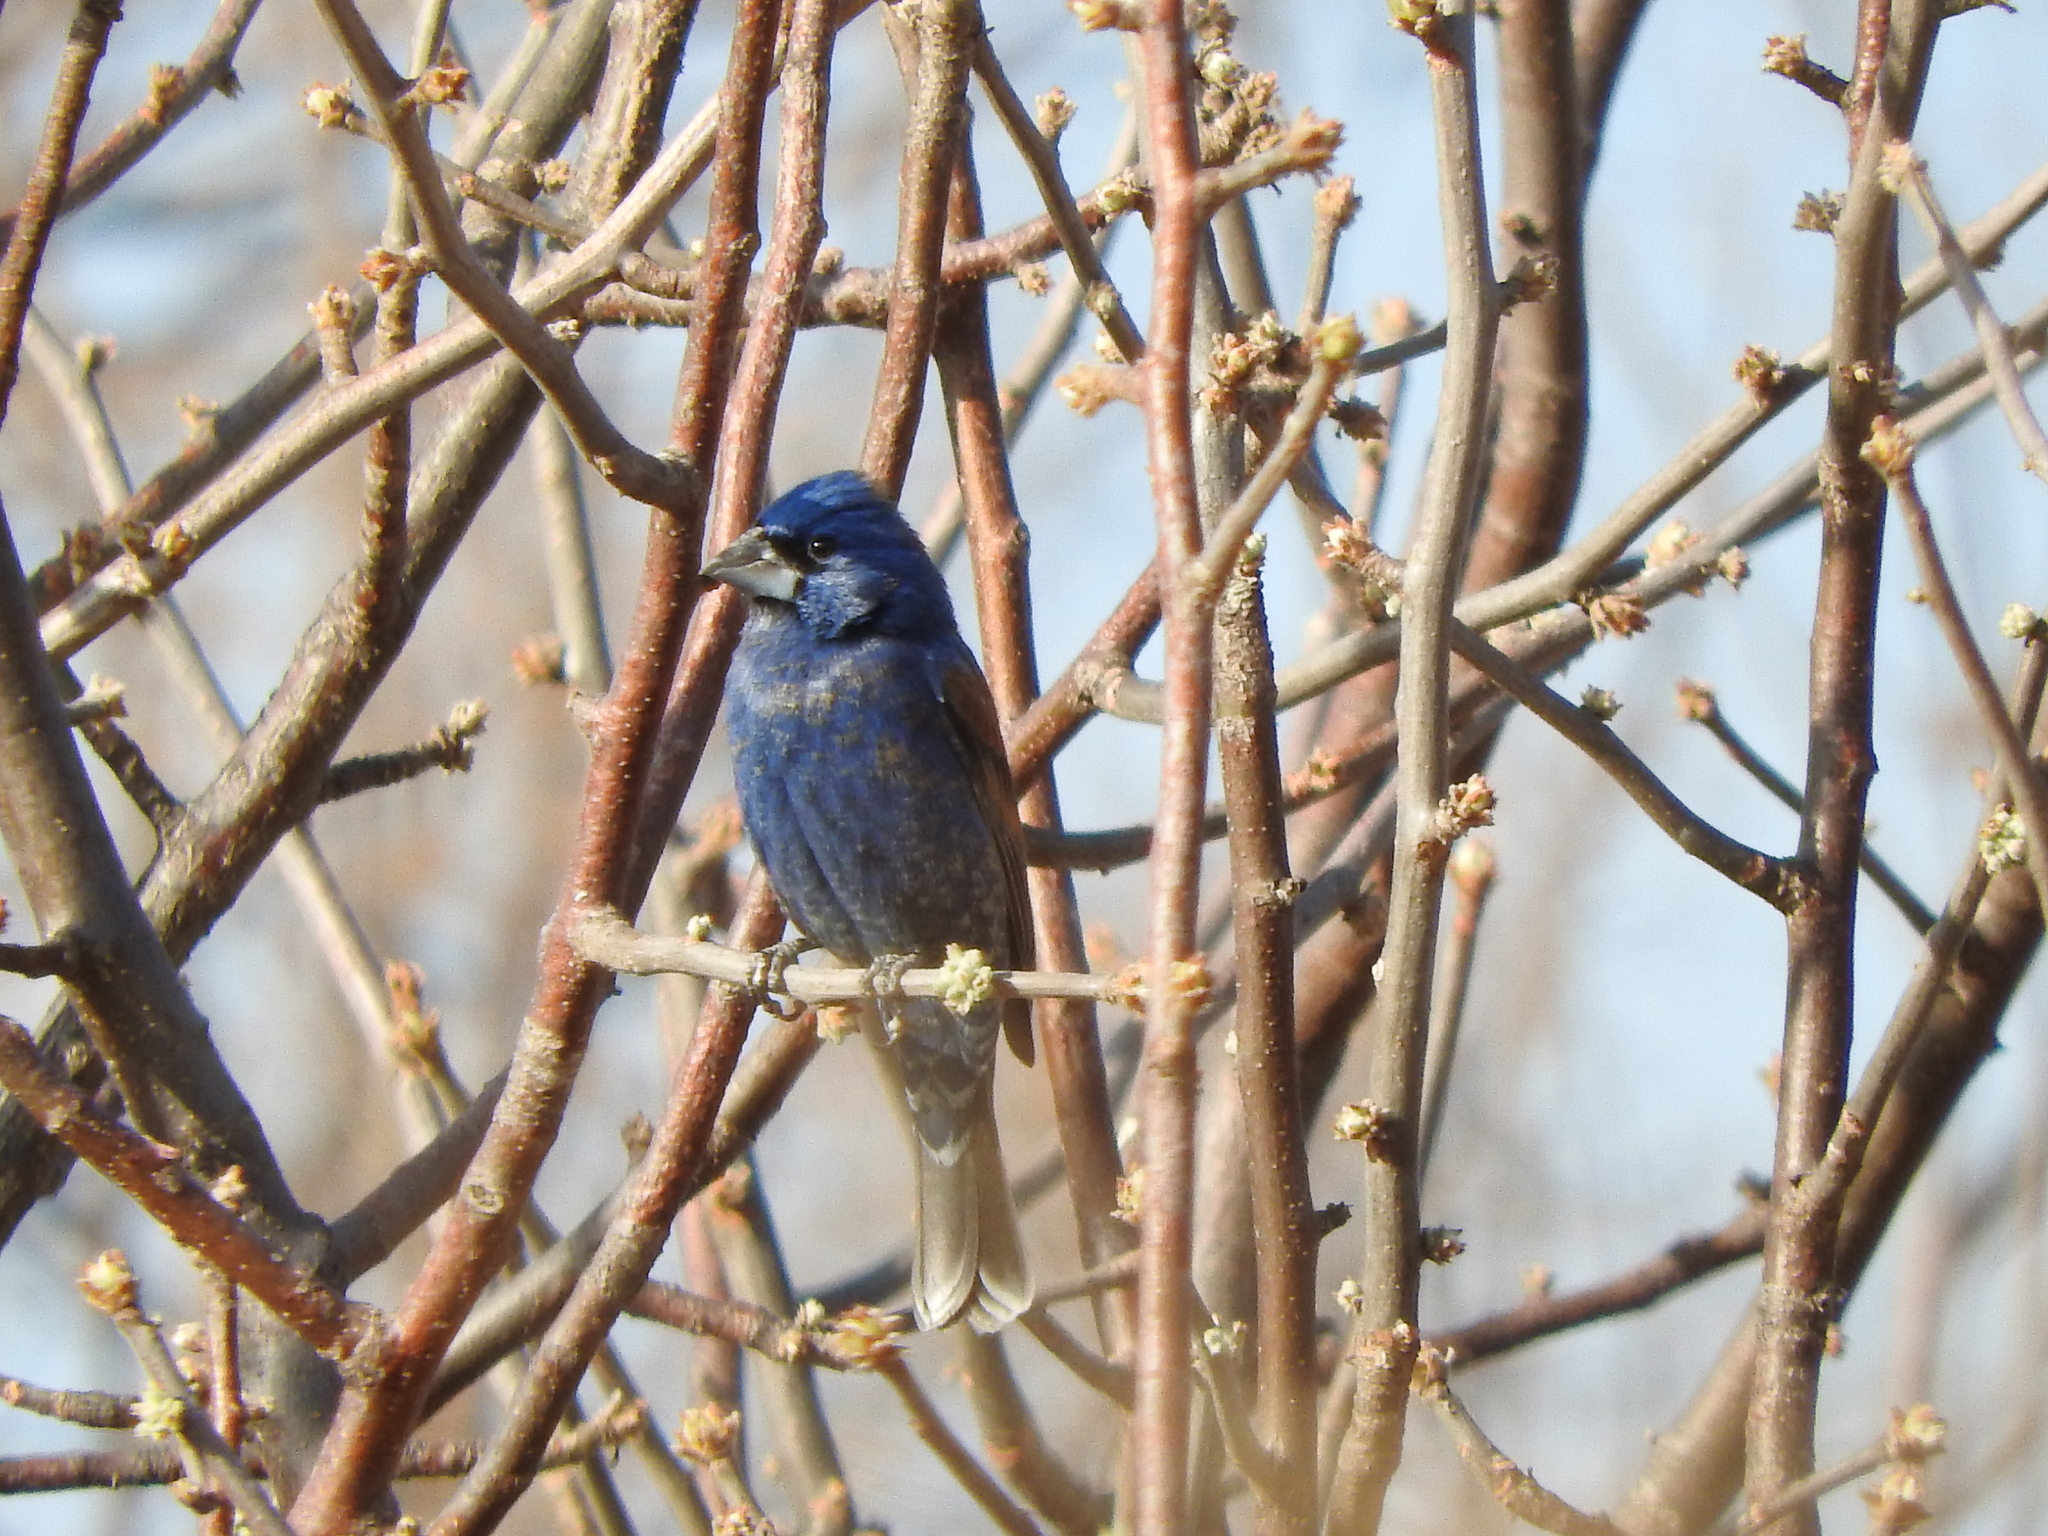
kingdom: Animalia
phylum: Chordata
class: Aves
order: Passeriformes
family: Cardinalidae
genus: Passerina
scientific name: Passerina caerulea
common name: Blue grosbeak
